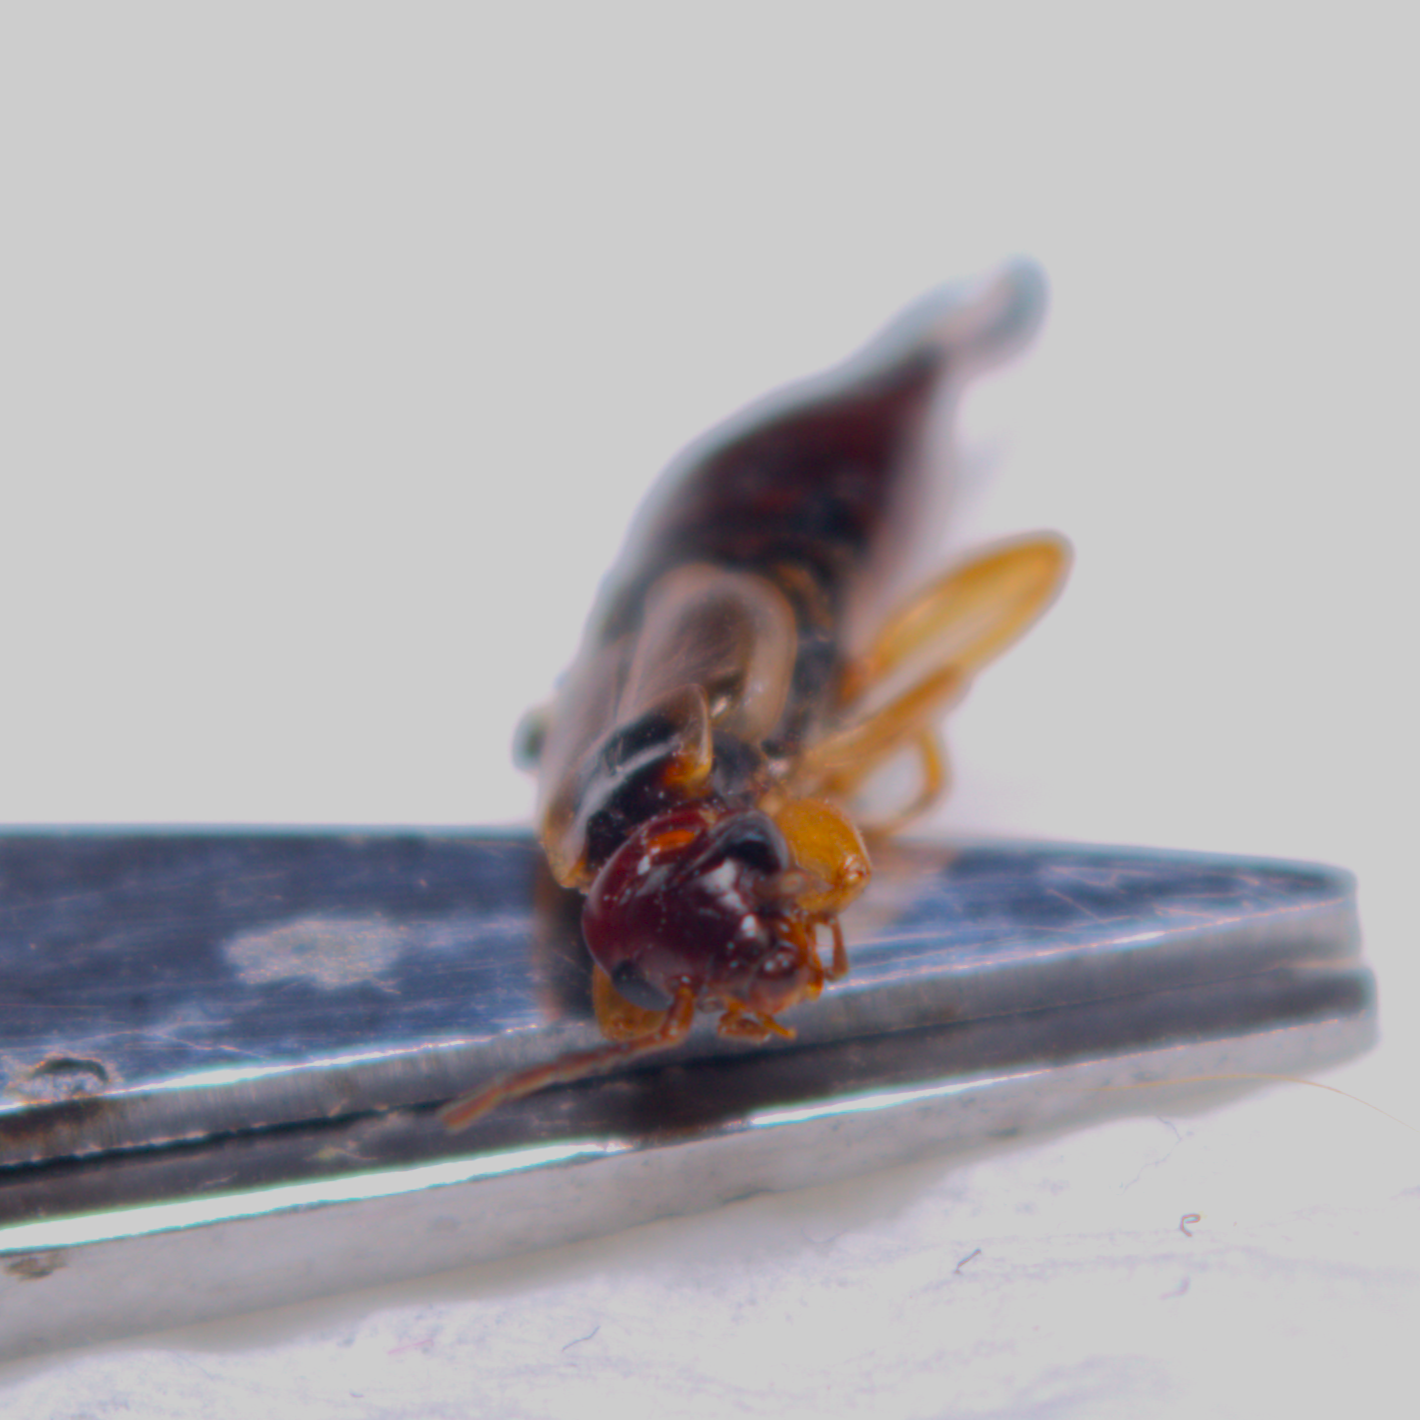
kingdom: Animalia
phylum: Arthropoda
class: Insecta
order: Dermaptera
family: Forficulidae
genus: Forficula
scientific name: Forficula
